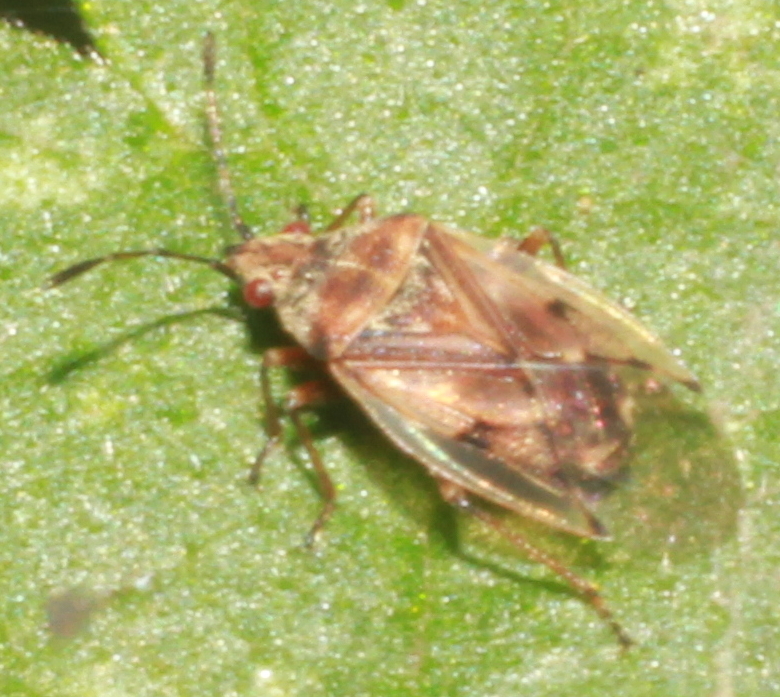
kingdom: Animalia
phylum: Arthropoda
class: Insecta
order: Hemiptera
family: Lygaeidae
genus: Kleidocerys
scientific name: Kleidocerys resedae
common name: Birch catkin bug
